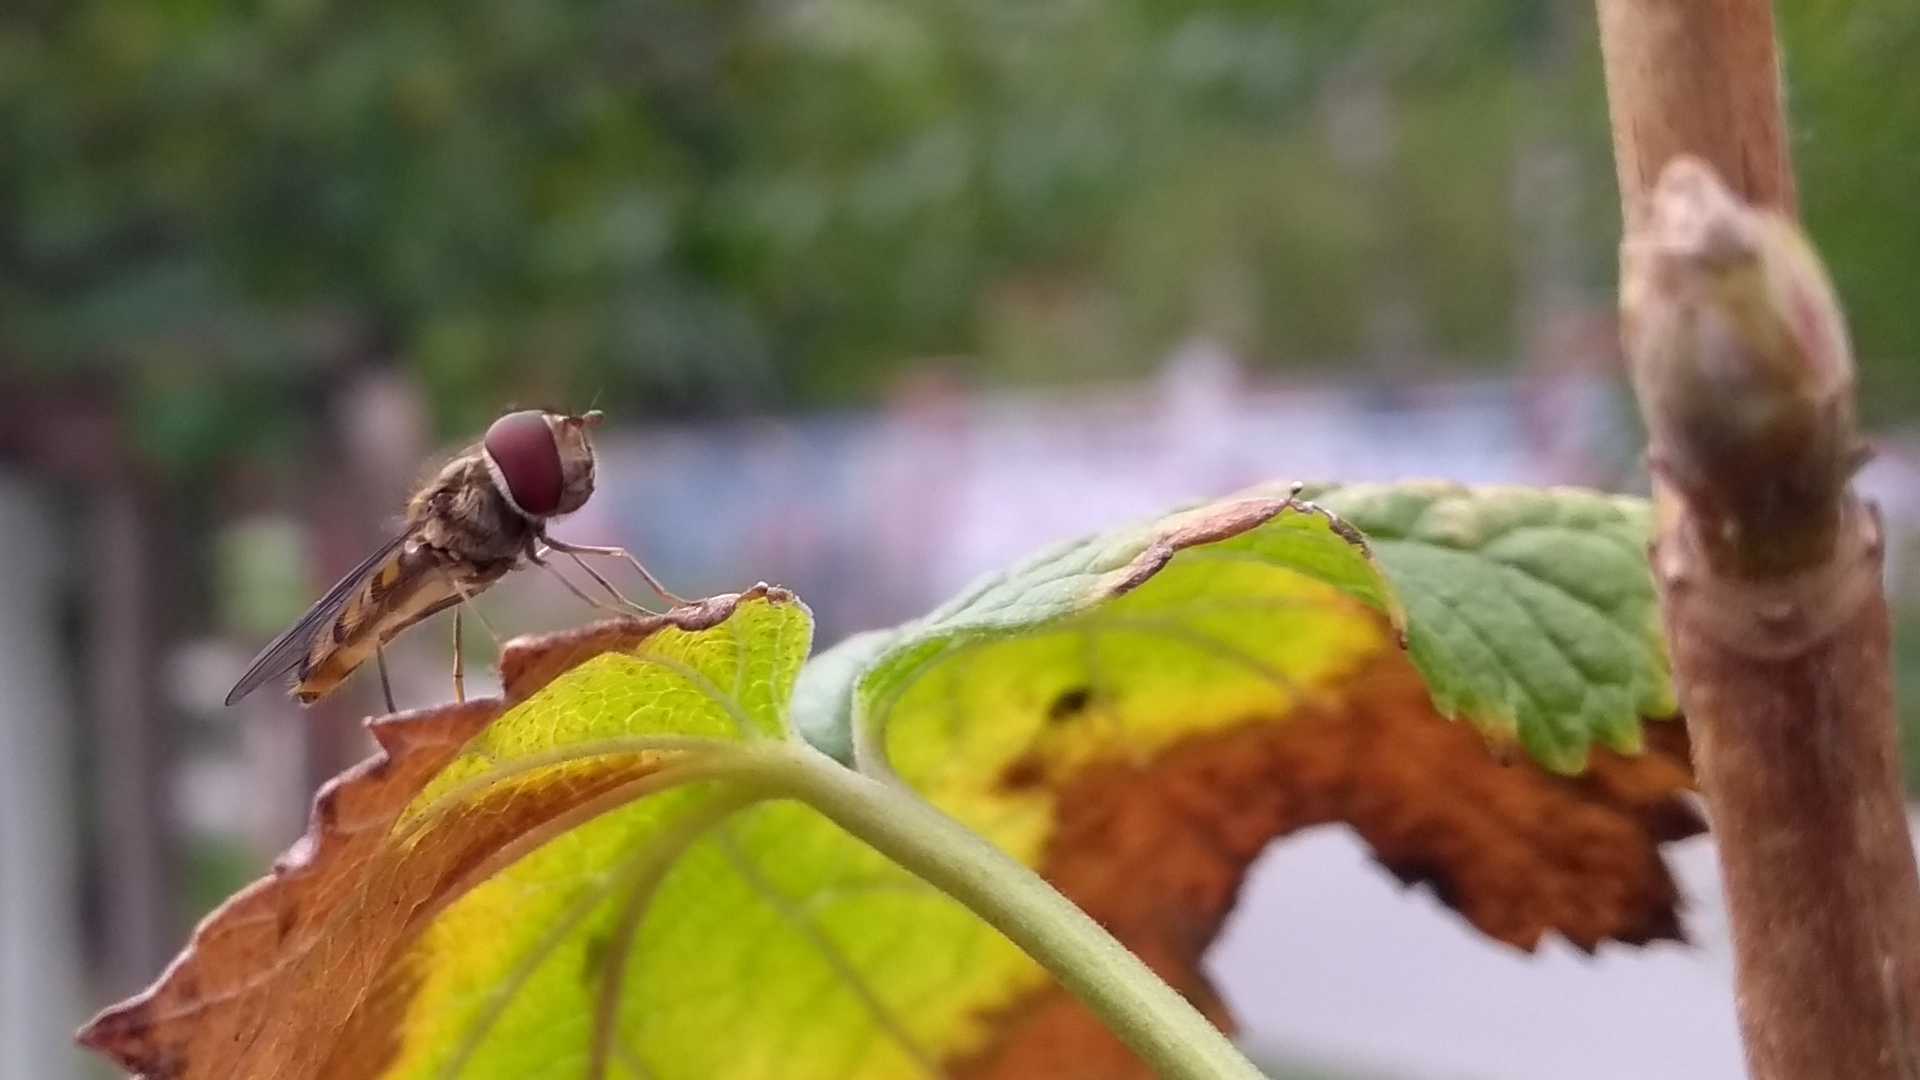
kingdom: Animalia
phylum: Arthropoda
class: Insecta
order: Diptera
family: Syrphidae
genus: Episyrphus
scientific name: Episyrphus balteatus
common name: Marmalade hoverfly
